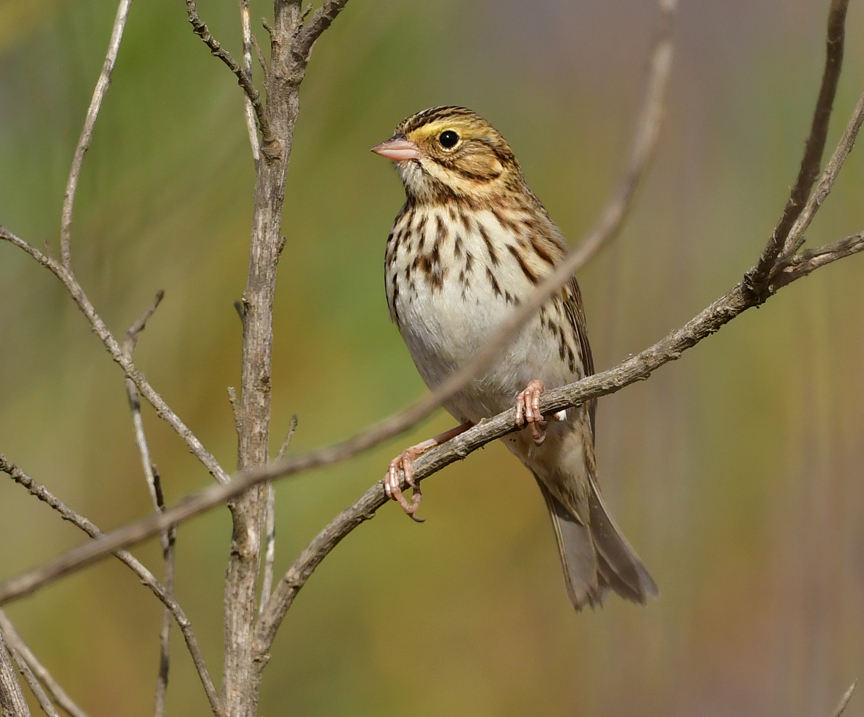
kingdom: Animalia
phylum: Chordata
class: Aves
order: Passeriformes
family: Passerellidae
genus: Passerculus
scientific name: Passerculus sandwichensis
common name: Savannah sparrow
